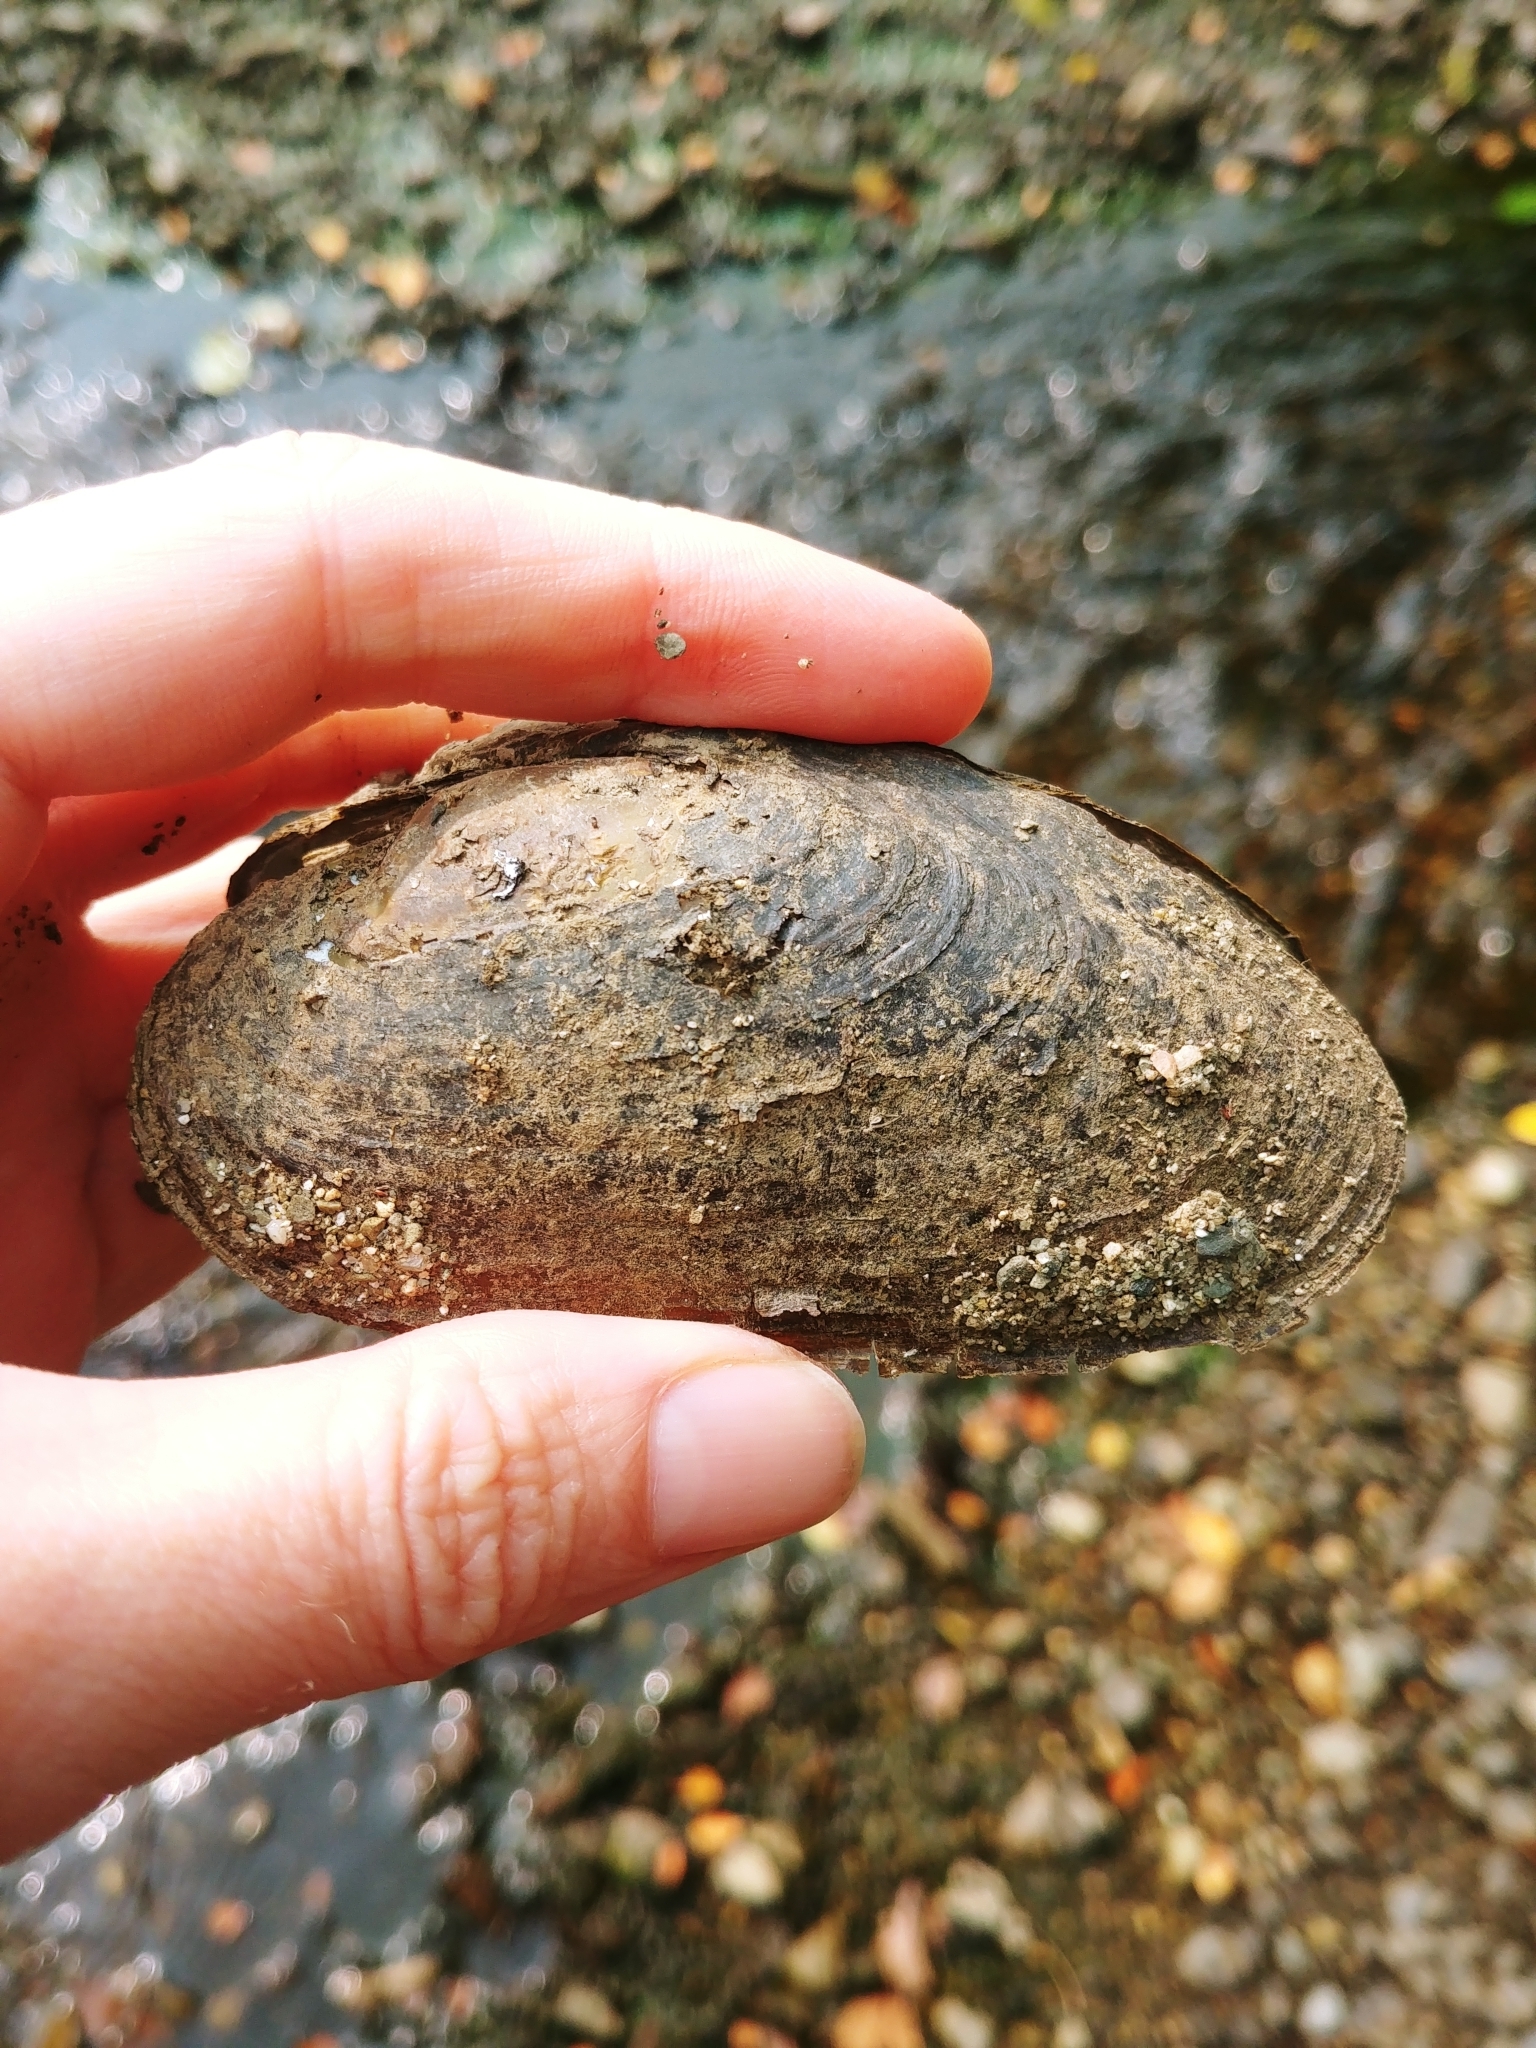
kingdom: Animalia
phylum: Mollusca
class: Bivalvia
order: Unionida
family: Margaritiferidae
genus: Margaritifera
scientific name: Margaritifera margaritifera
